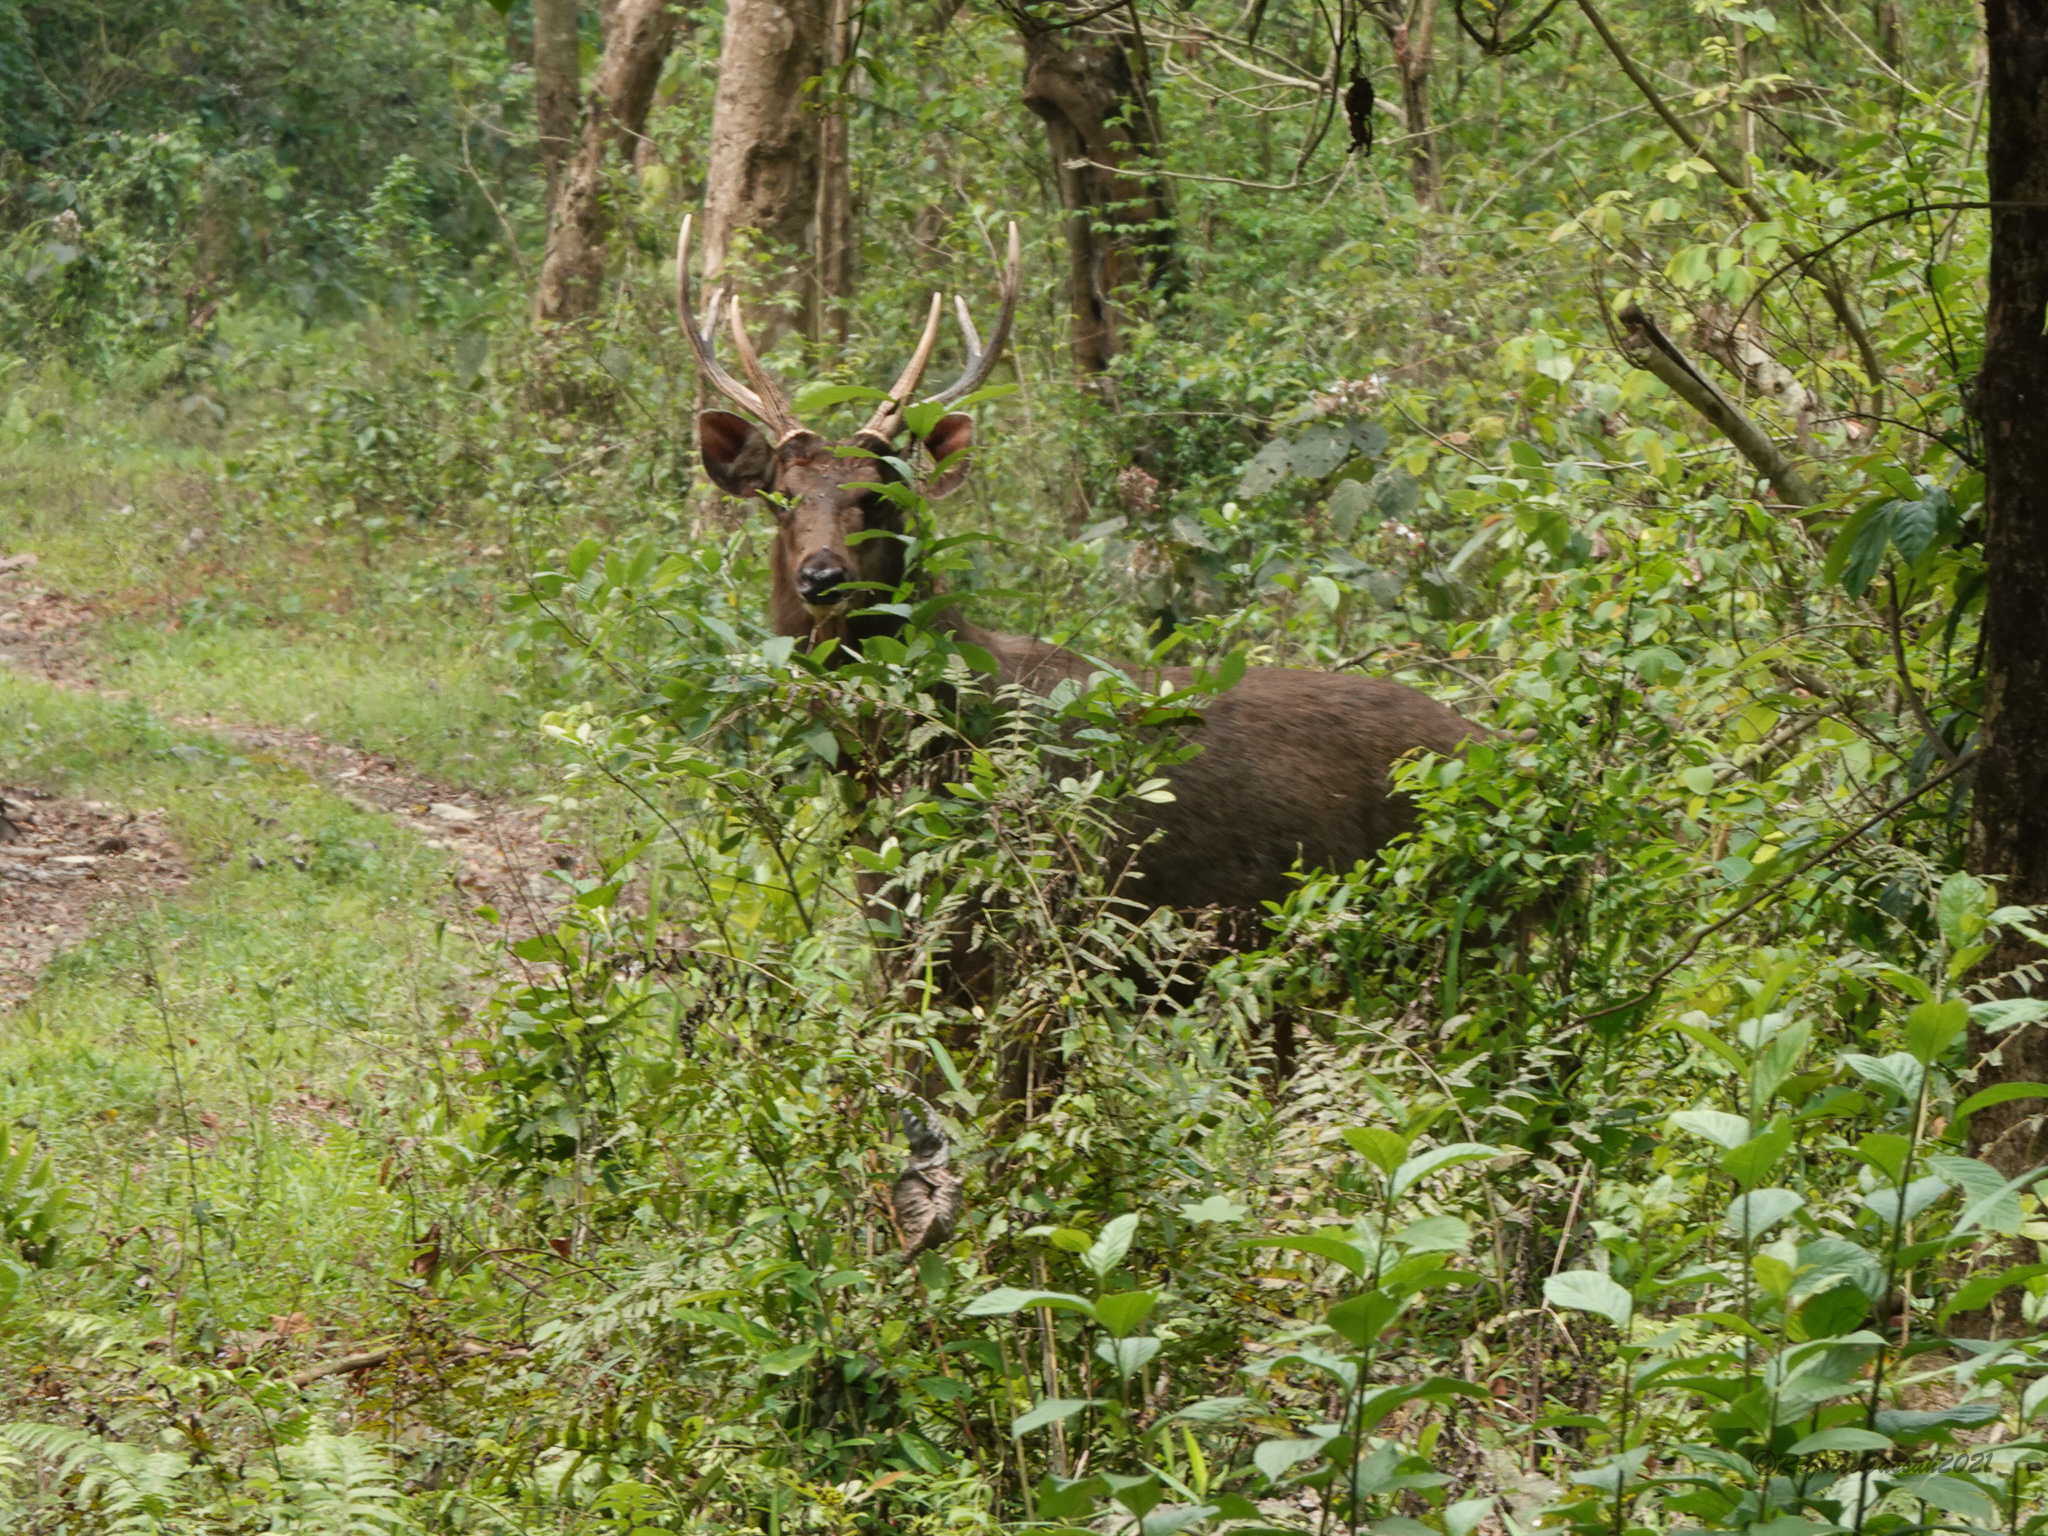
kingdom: Animalia
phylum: Chordata
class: Mammalia
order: Artiodactyla
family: Cervidae
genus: Rusa
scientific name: Rusa unicolor
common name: Sambar
